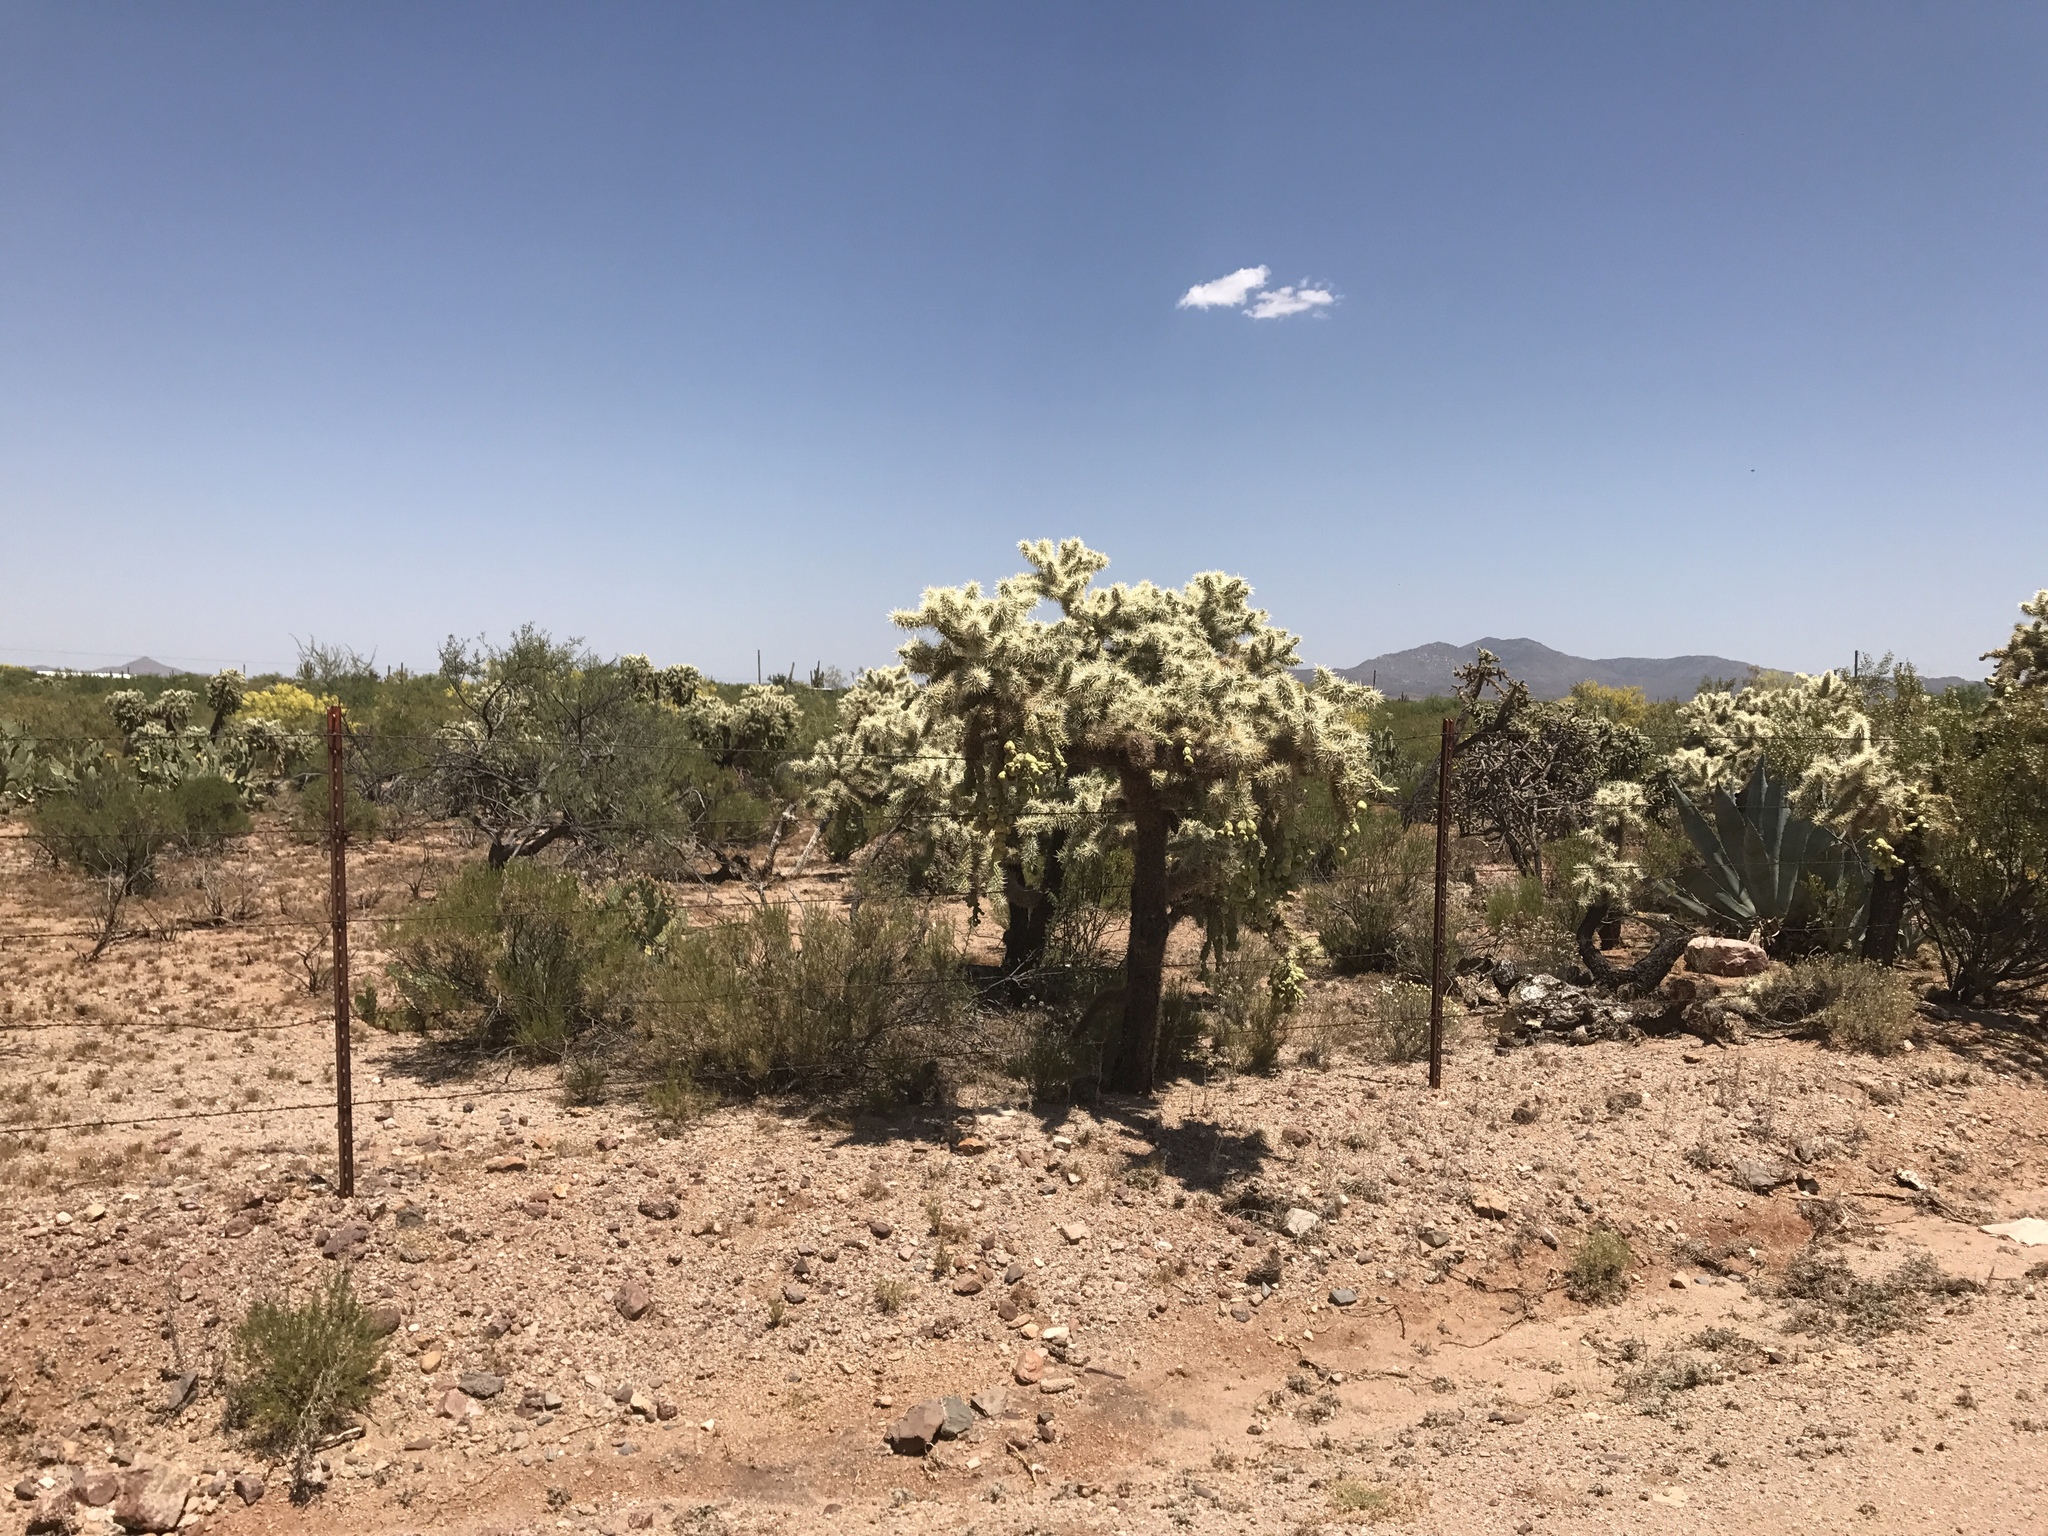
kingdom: Plantae
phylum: Tracheophyta
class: Magnoliopsida
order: Caryophyllales
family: Cactaceae
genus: Cylindropuntia
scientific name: Cylindropuntia fulgida
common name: Jumping cholla
